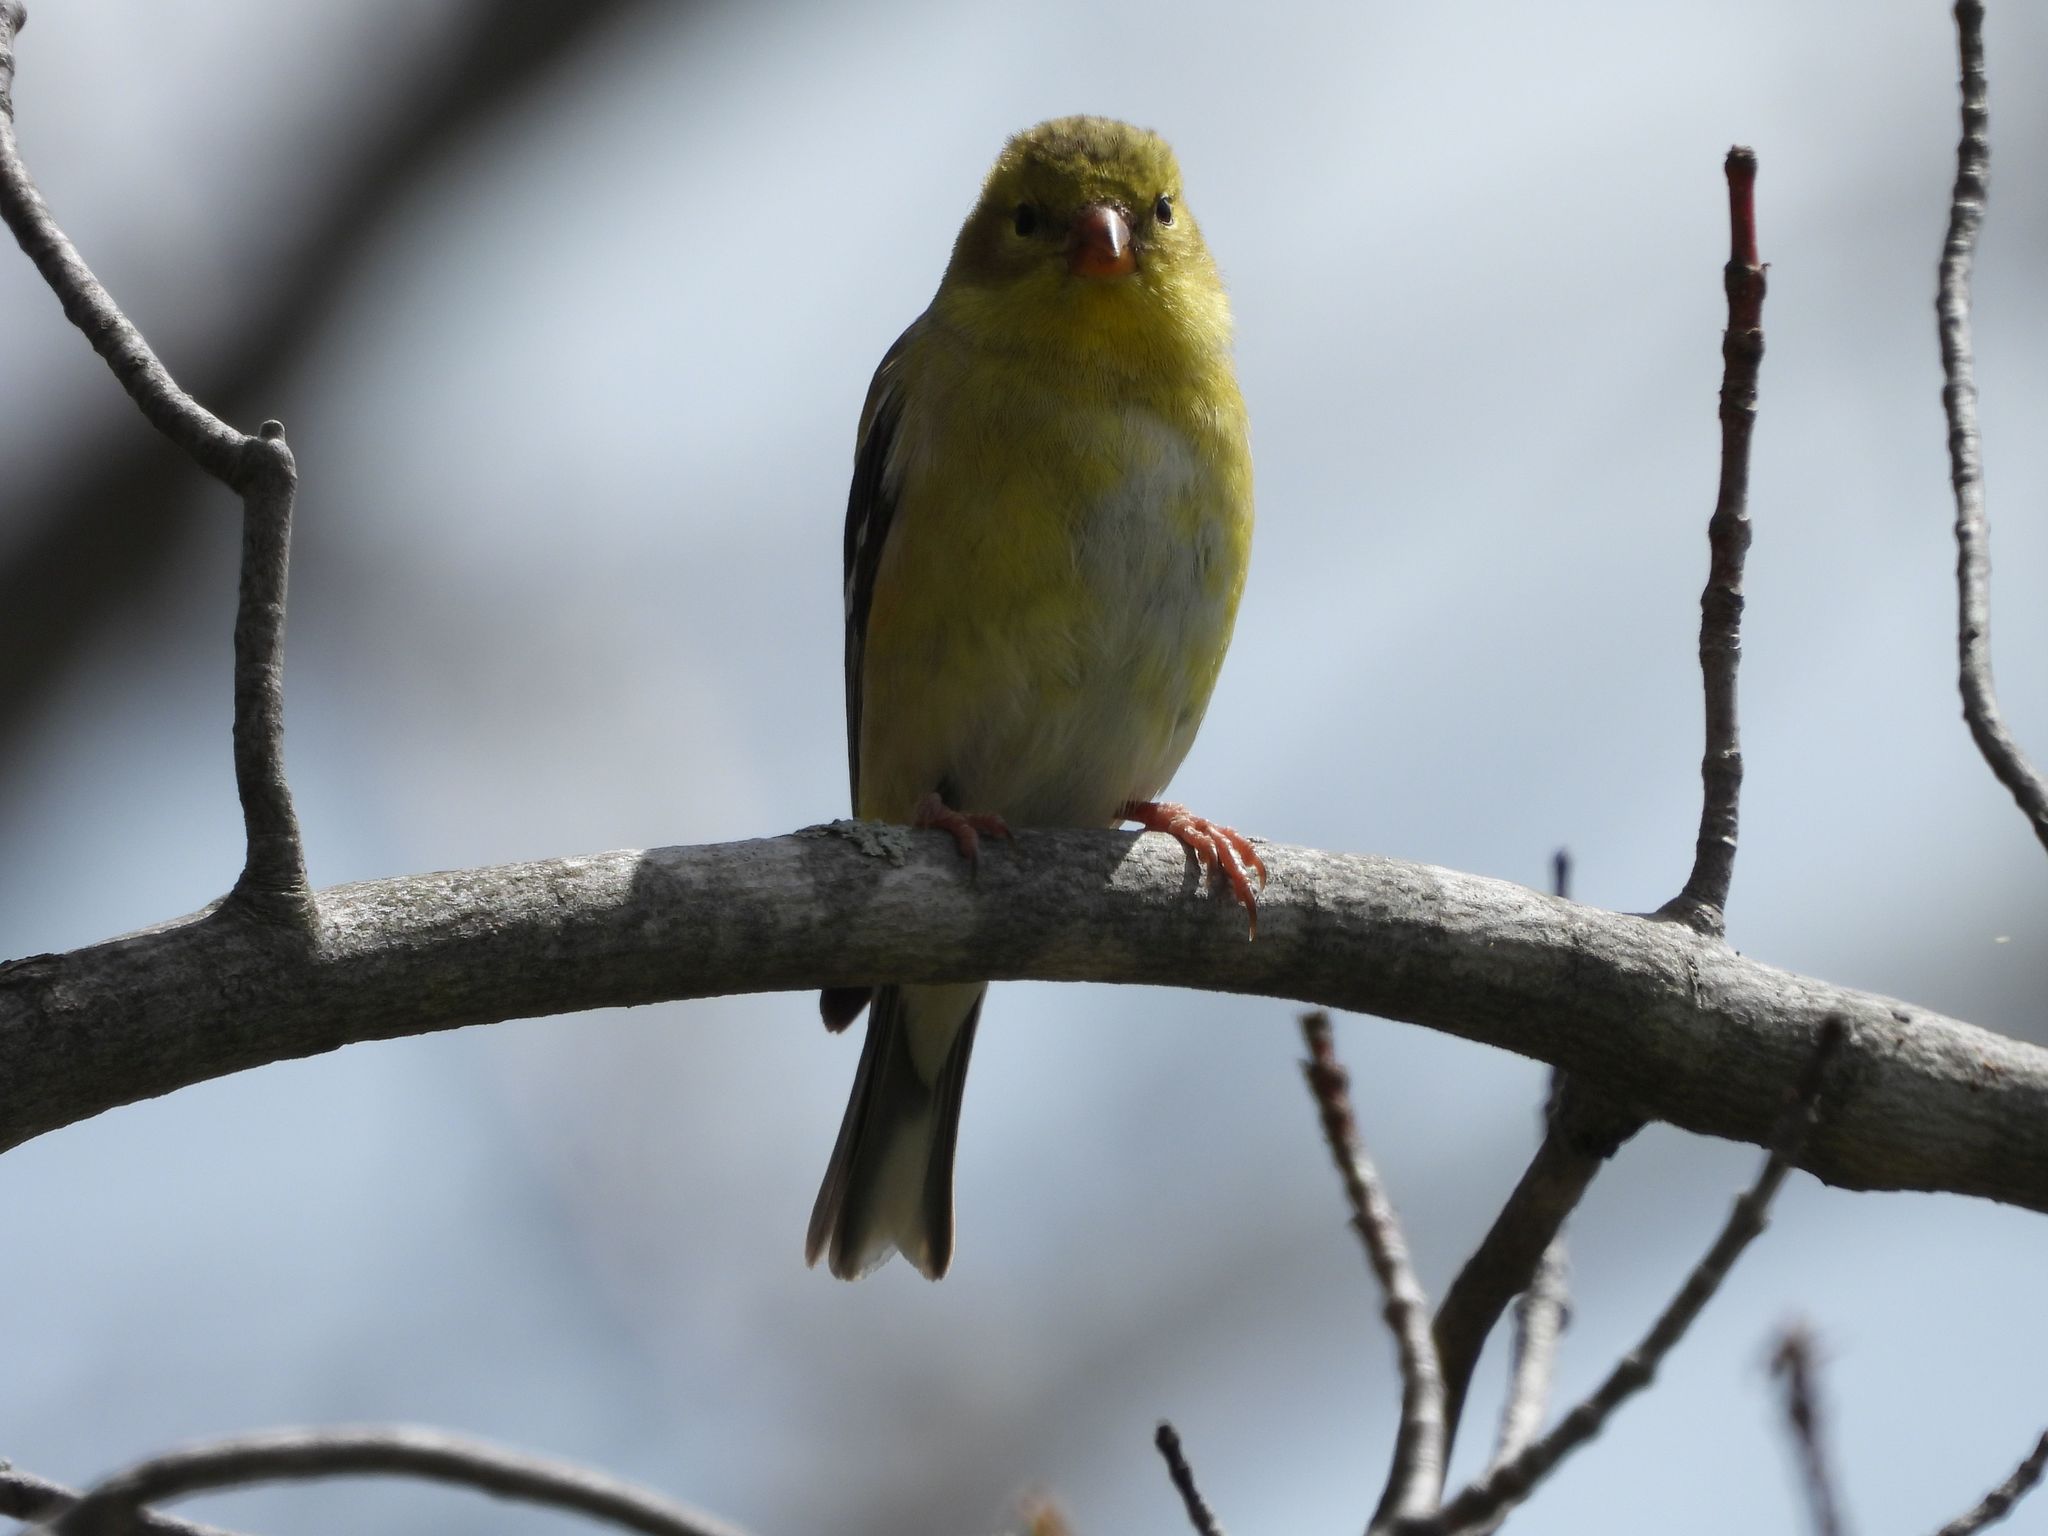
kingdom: Animalia
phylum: Chordata
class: Aves
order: Passeriformes
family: Fringillidae
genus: Spinus
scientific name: Spinus tristis
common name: American goldfinch
